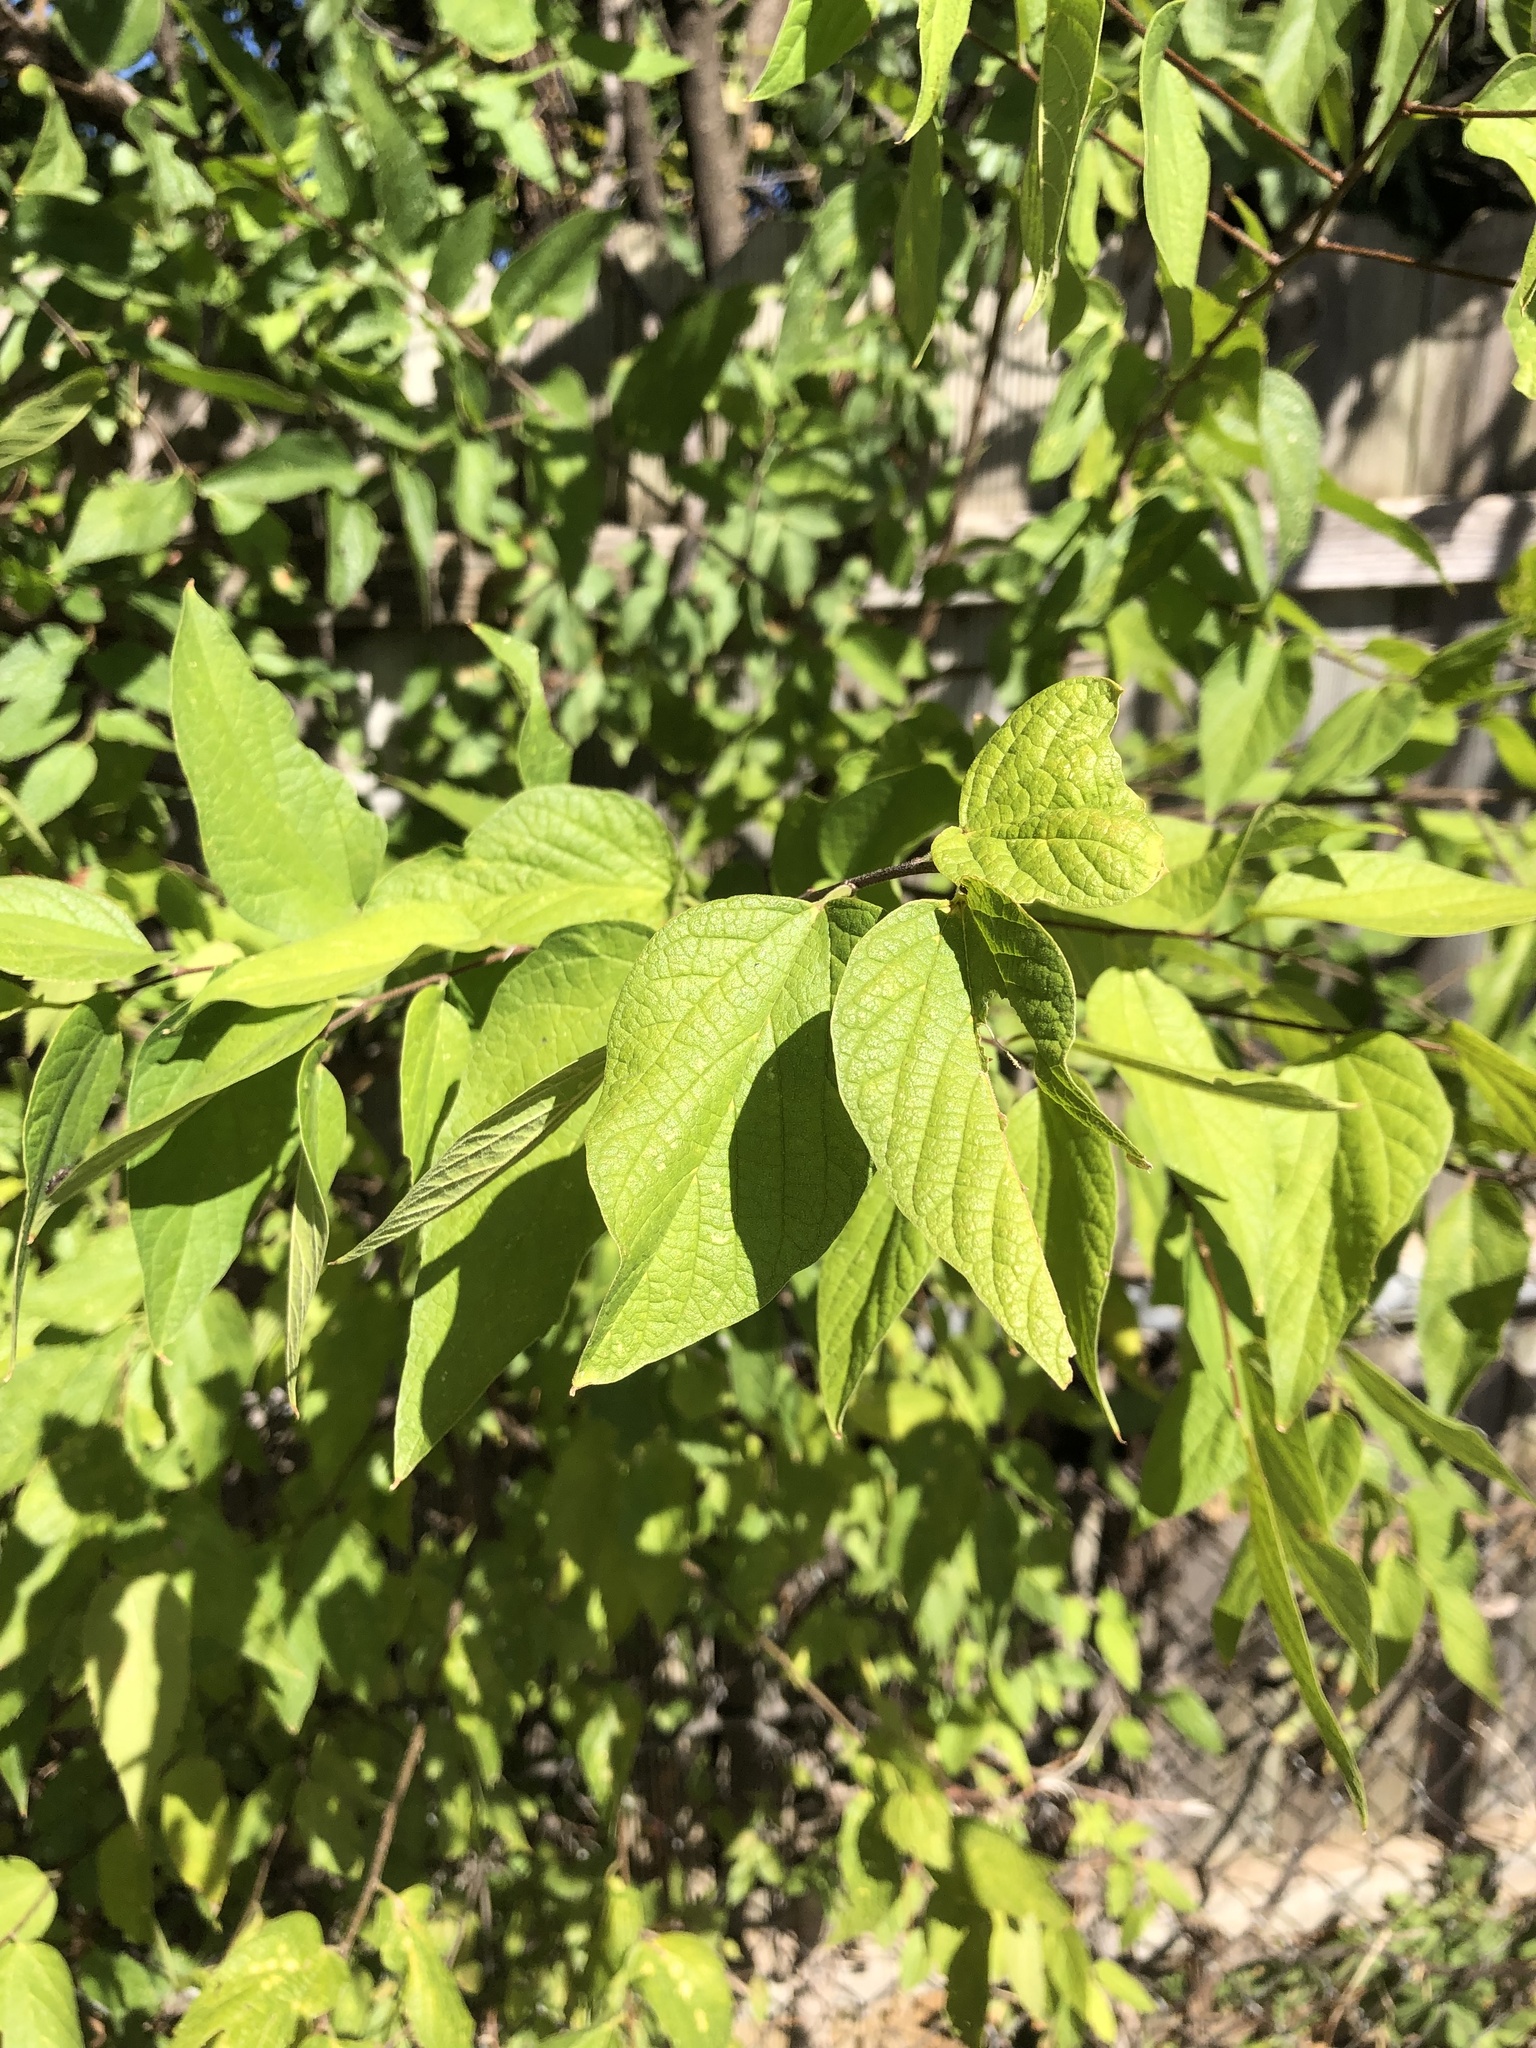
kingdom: Plantae
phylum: Tracheophyta
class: Magnoliopsida
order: Rosales
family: Cannabaceae
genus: Celtis
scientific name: Celtis laevigata
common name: Sugarberry
